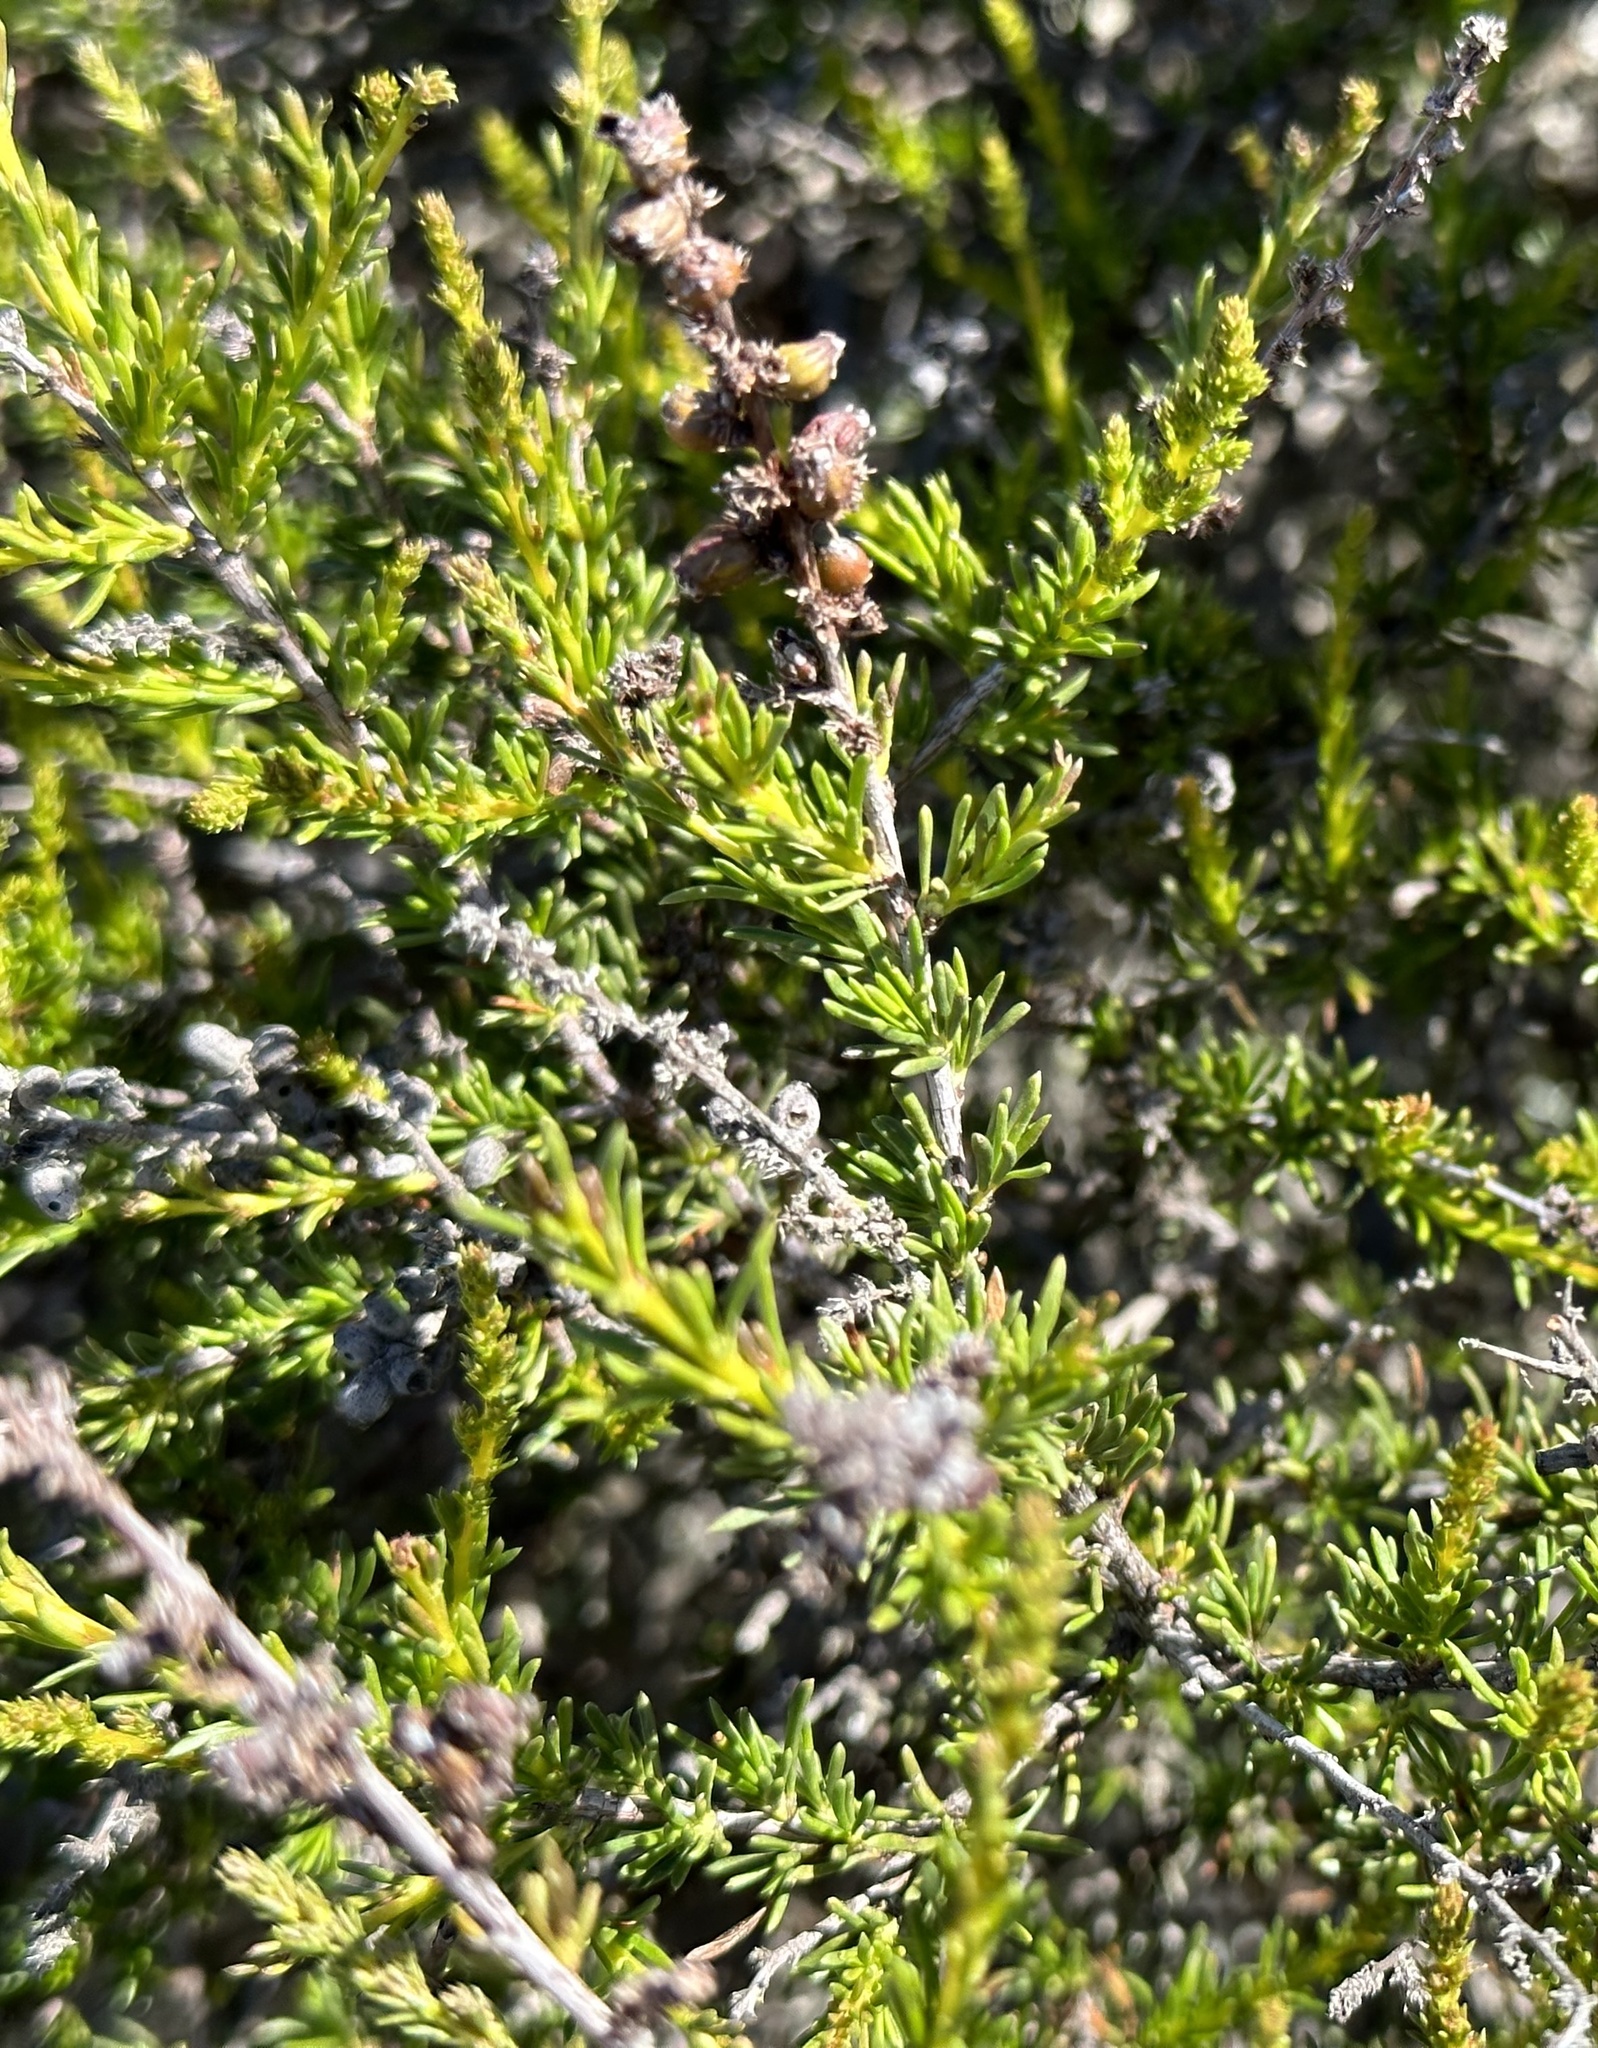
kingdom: Animalia
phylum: Arthropoda
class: Insecta
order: Diptera
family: Cecidomyiidae
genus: Asphondylia
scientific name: Asphondylia adenostoma
